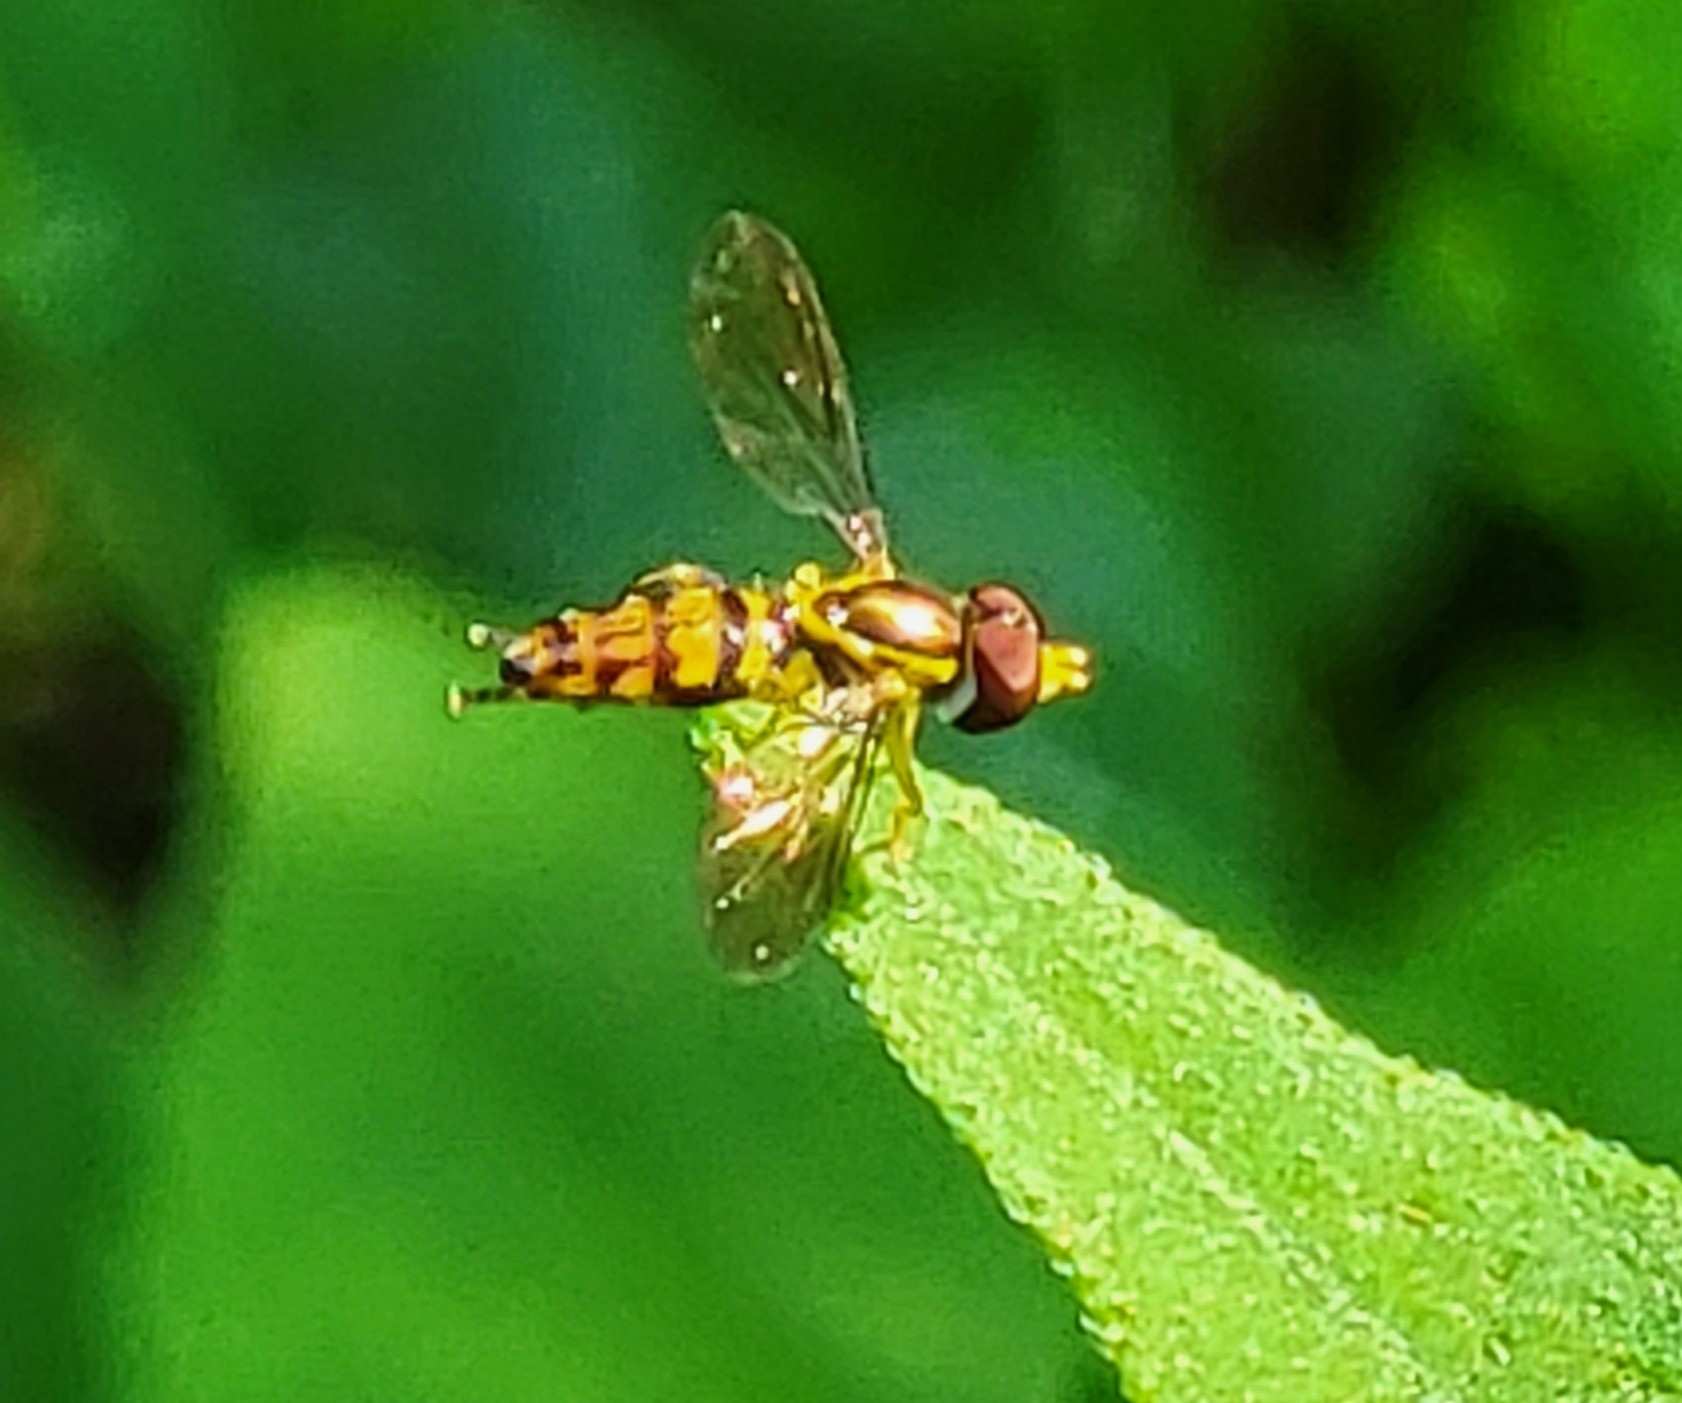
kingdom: Animalia
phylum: Arthropoda
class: Insecta
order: Diptera
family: Syrphidae
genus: Toxomerus
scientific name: Toxomerus geminatus
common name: Eastern calligrapher
